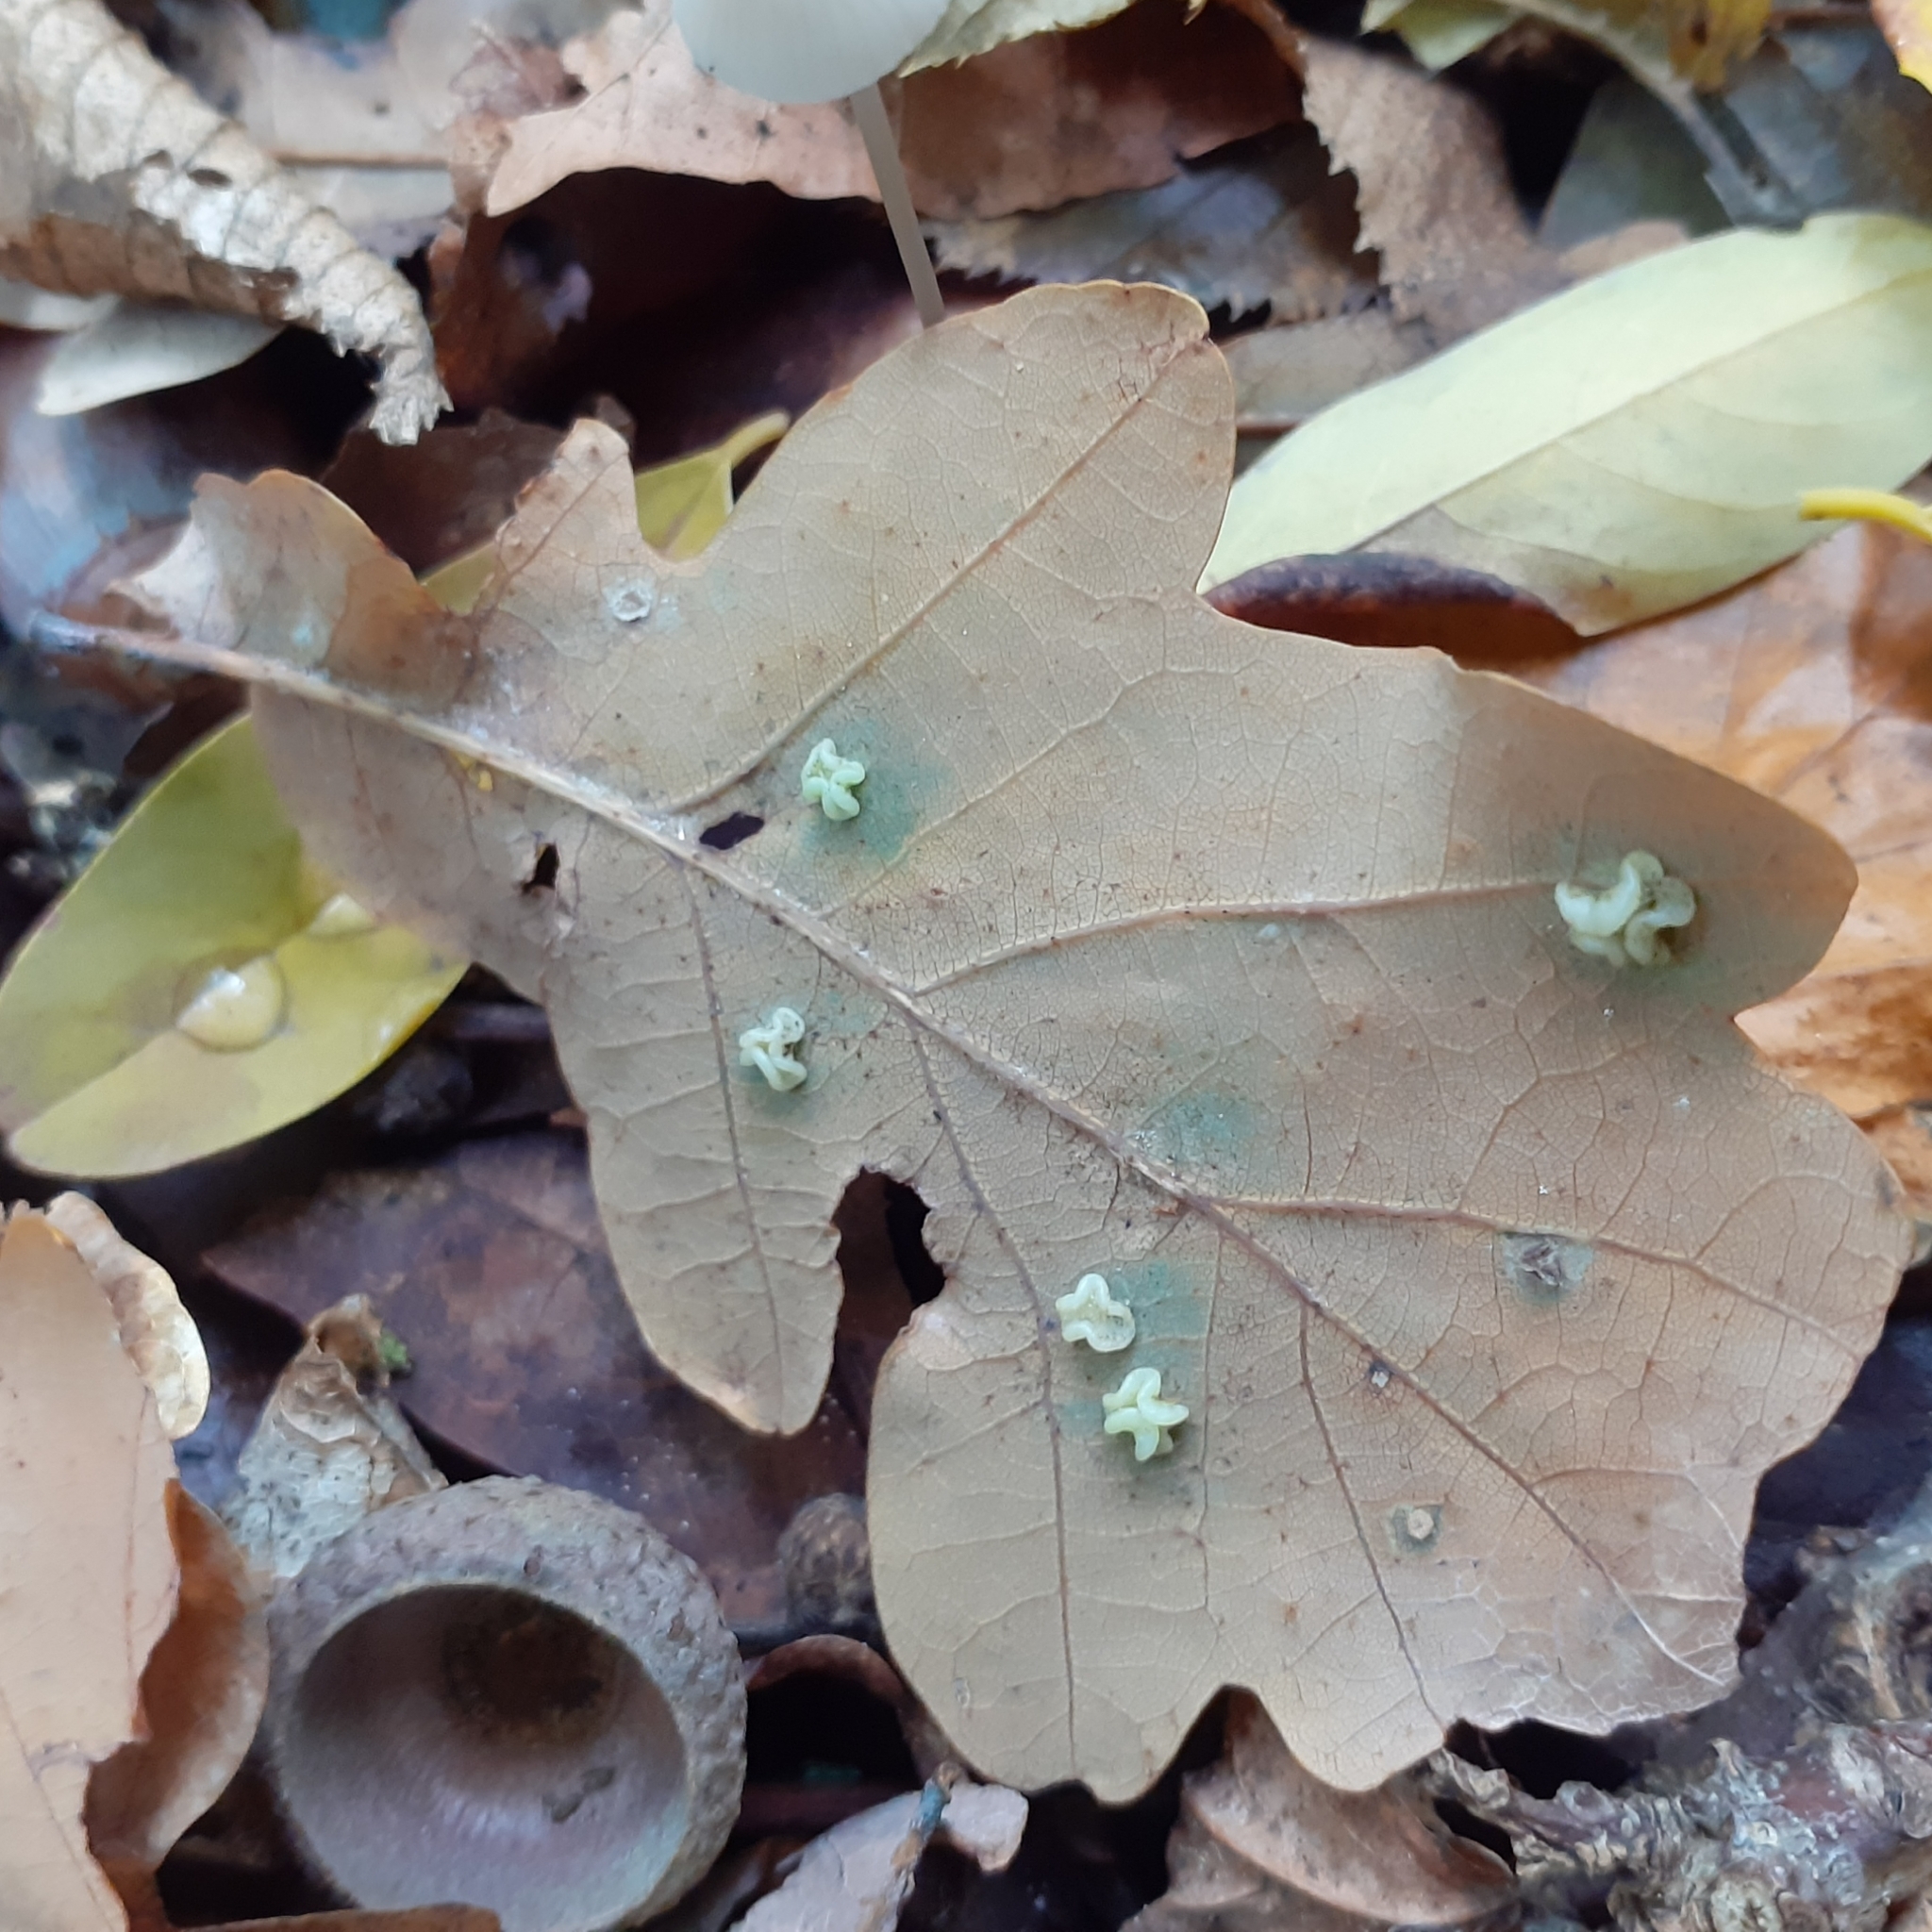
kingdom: Animalia
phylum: Arthropoda
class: Insecta
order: Hymenoptera
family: Cynipidae
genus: Neuroterus
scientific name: Neuroterus albipes
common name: Smooth spangle gall
